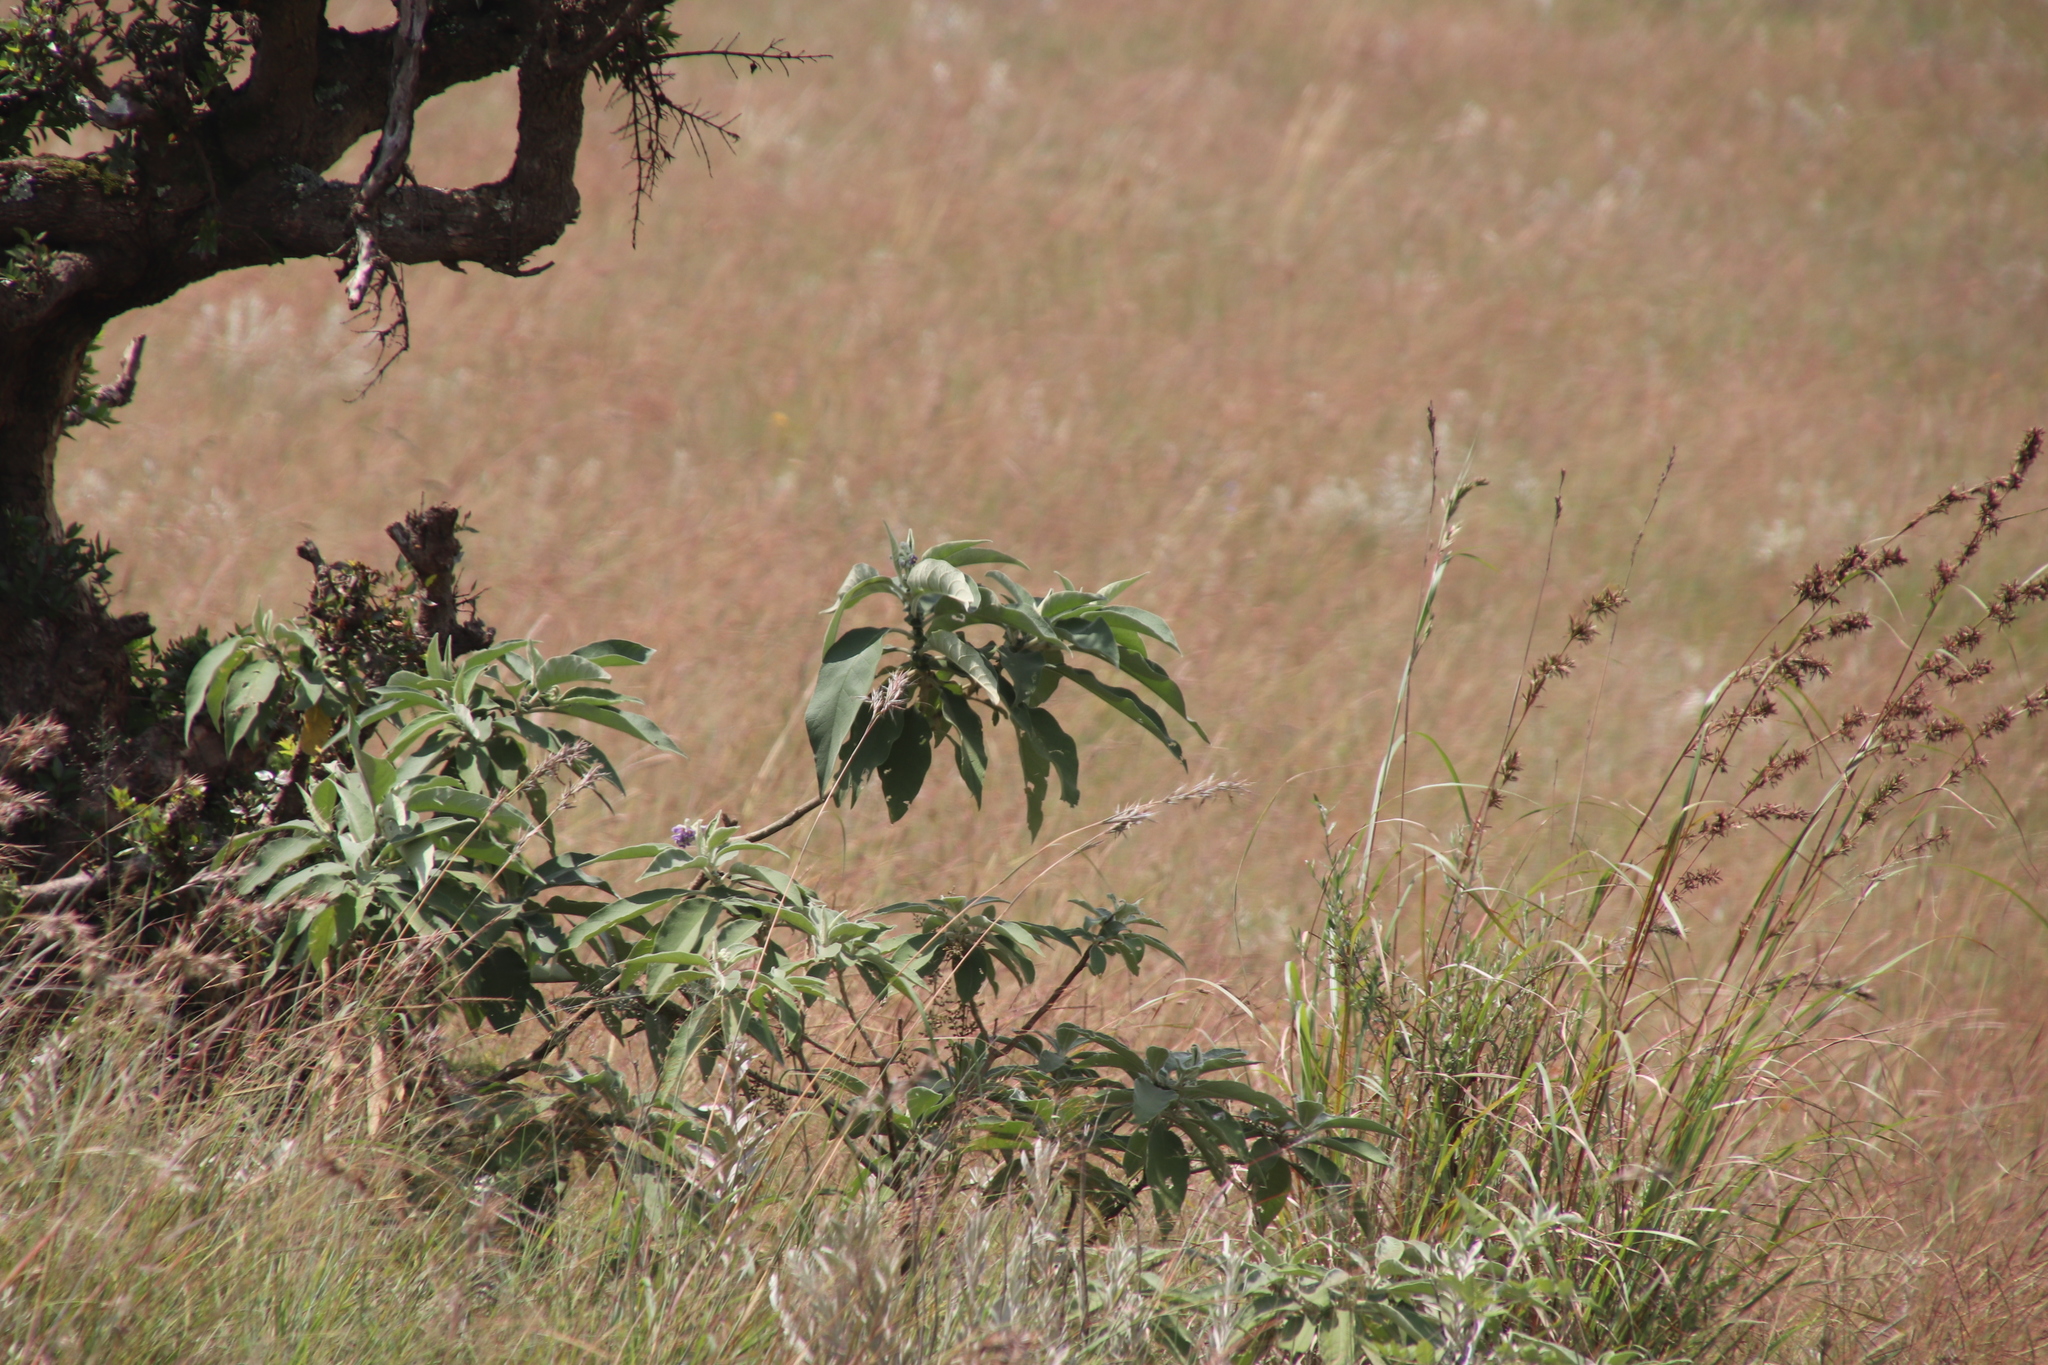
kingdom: Plantae
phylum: Tracheophyta
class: Magnoliopsida
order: Solanales
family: Solanaceae
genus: Solanum
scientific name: Solanum mauritianum
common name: Earleaf nightshade
